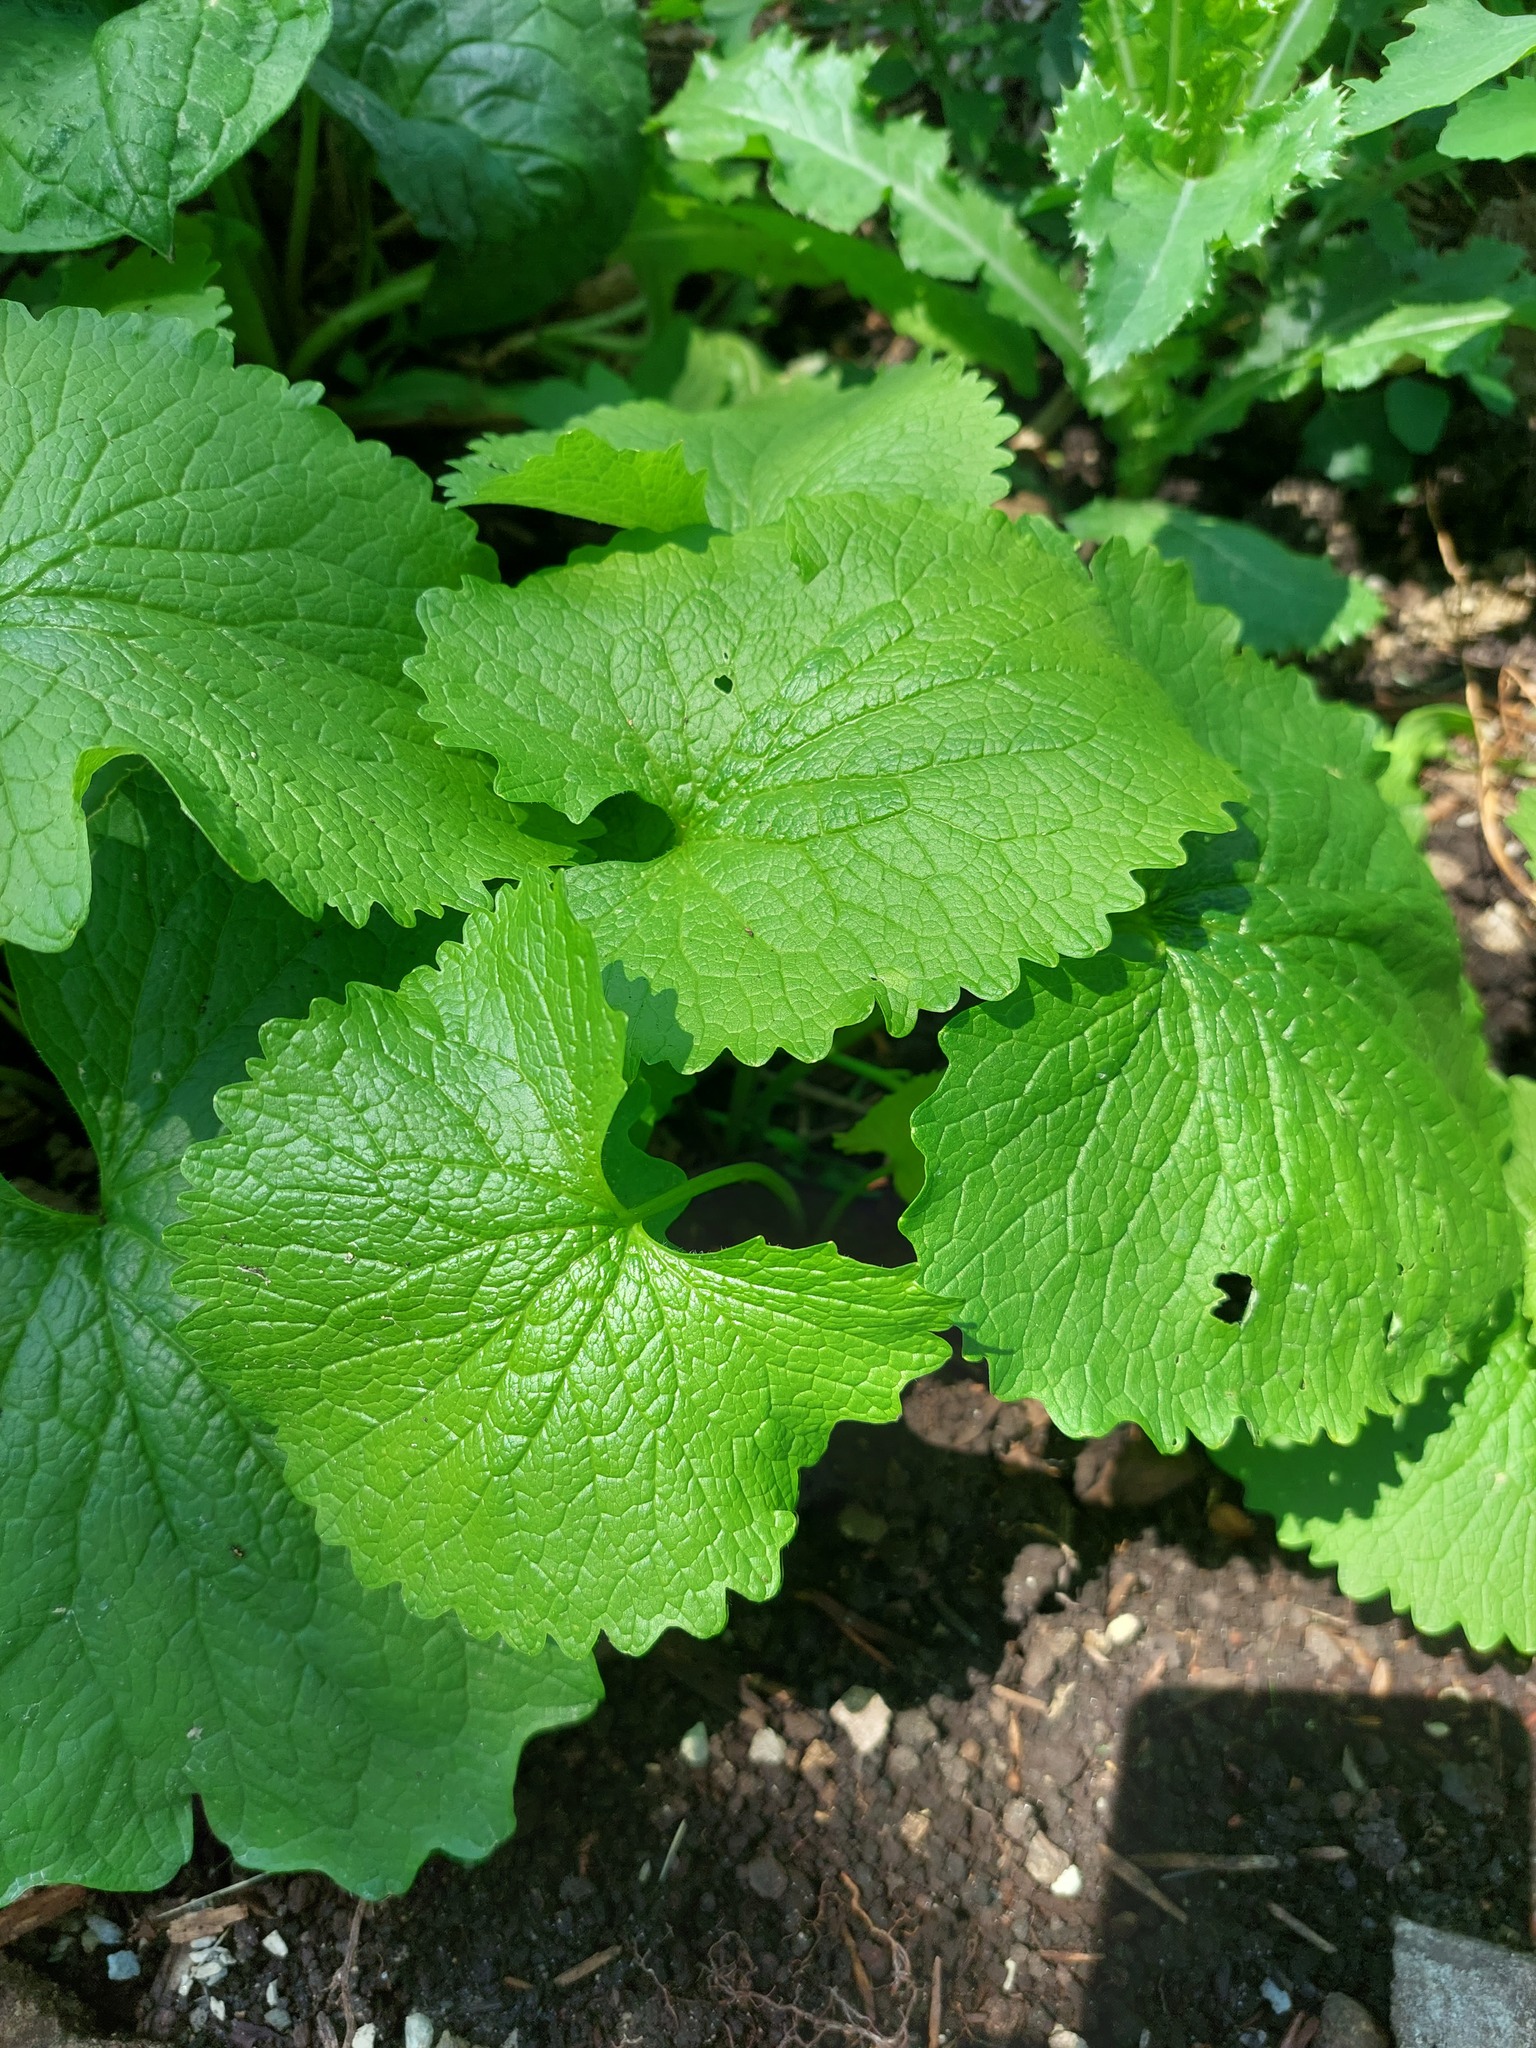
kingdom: Plantae
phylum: Tracheophyta
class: Magnoliopsida
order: Brassicales
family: Brassicaceae
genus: Alliaria
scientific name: Alliaria petiolata
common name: Garlic mustard
